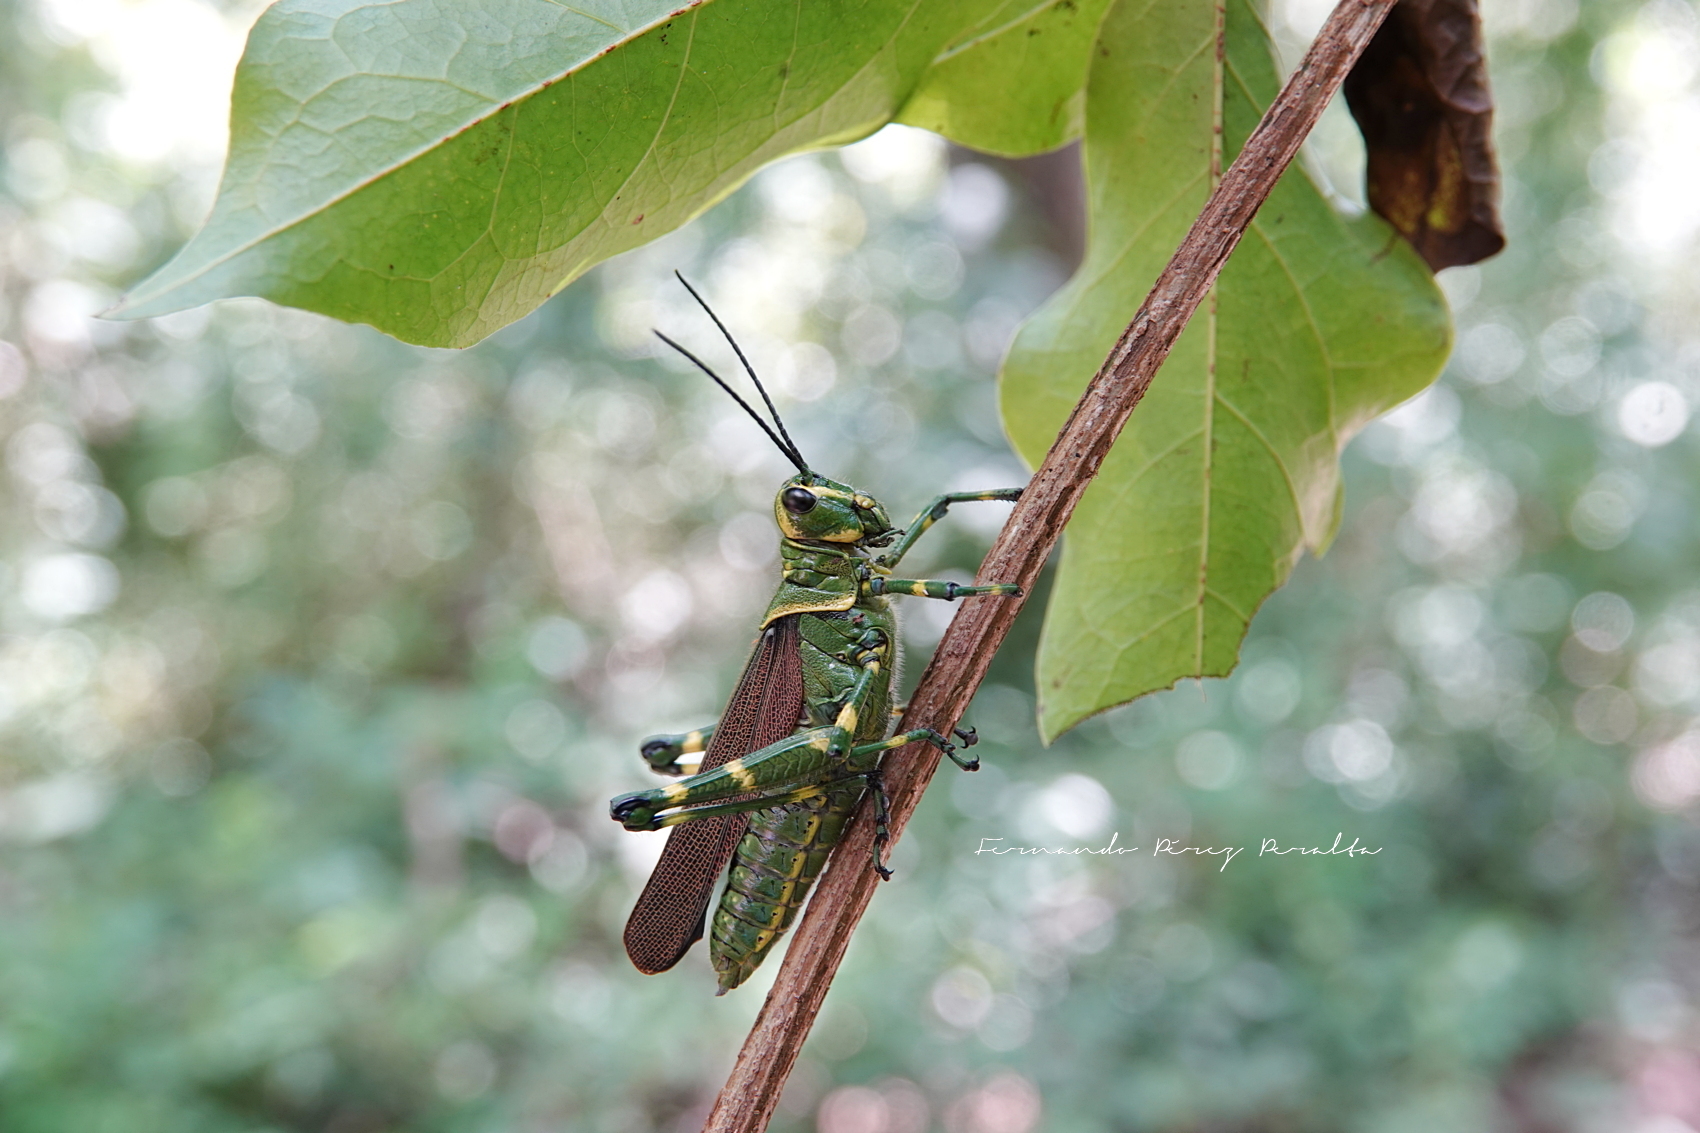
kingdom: Animalia
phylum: Arthropoda
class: Insecta
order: Orthoptera
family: Romaleidae
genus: Chromacris
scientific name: Chromacris miles
